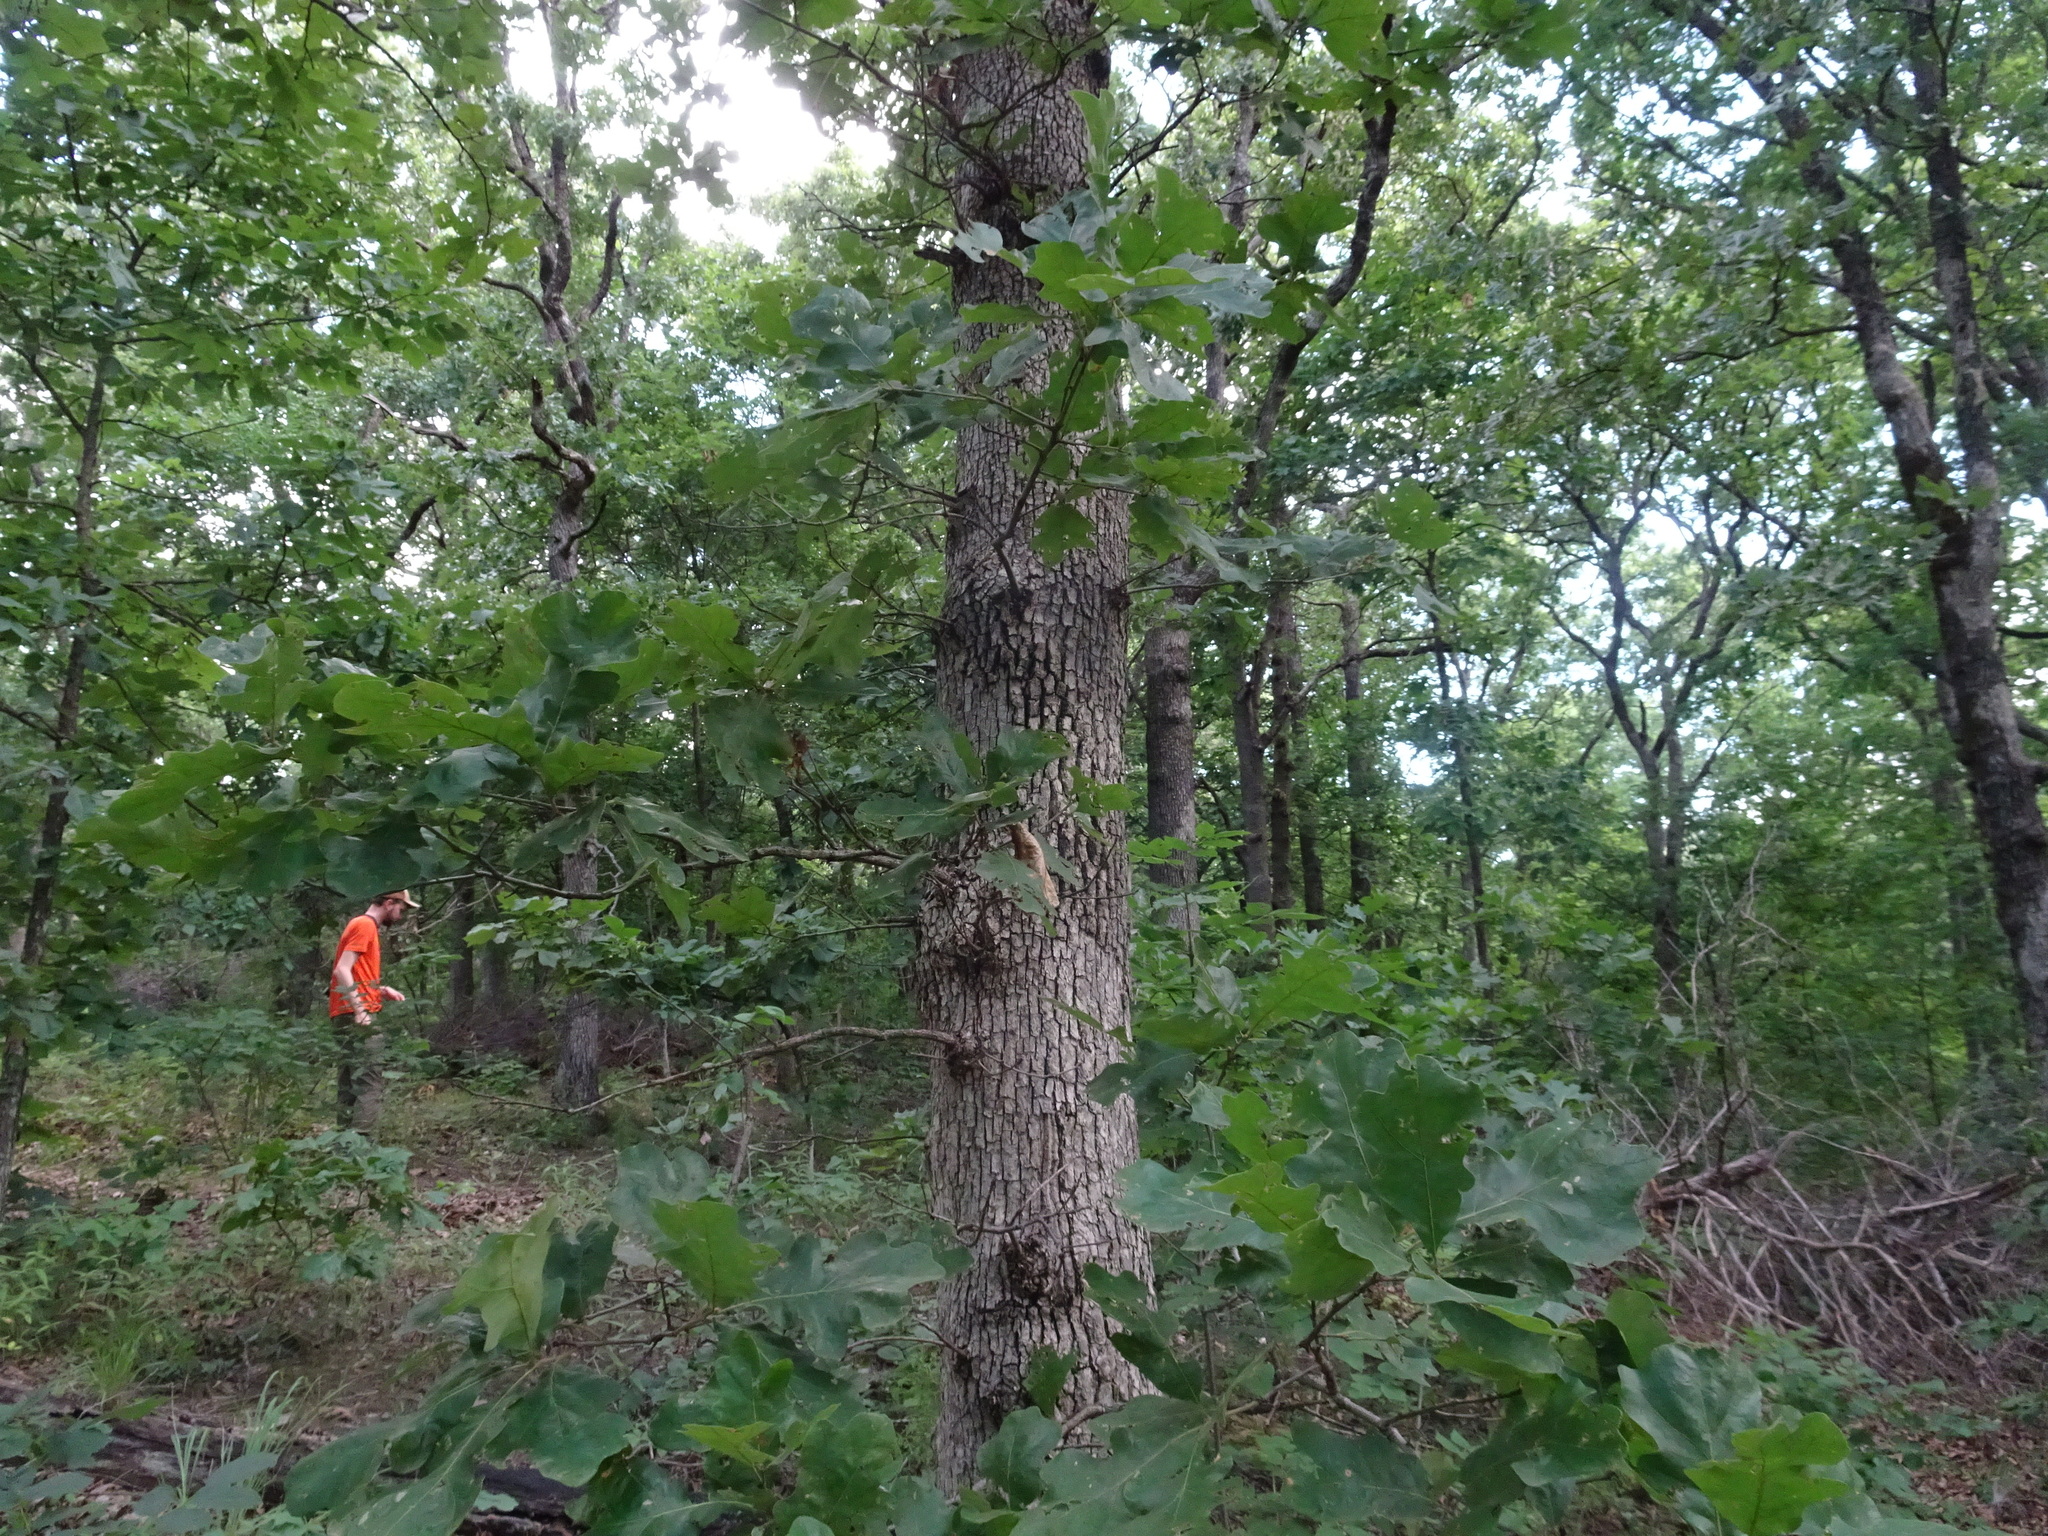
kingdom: Plantae
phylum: Tracheophyta
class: Magnoliopsida
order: Fagales
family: Fagaceae
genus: Quercus
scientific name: Quercus stellata
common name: Post oak
